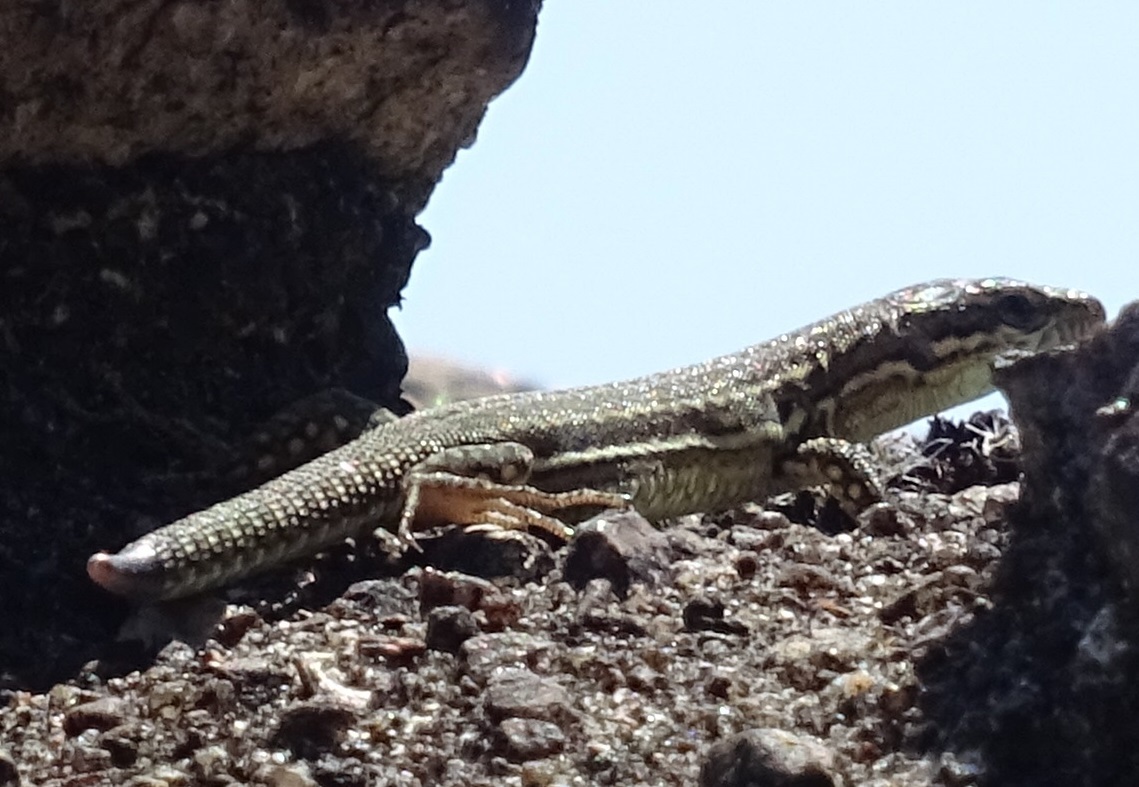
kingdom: Animalia
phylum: Chordata
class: Squamata
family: Lacertidae
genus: Podarcis
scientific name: Podarcis muralis
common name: Common wall lizard
